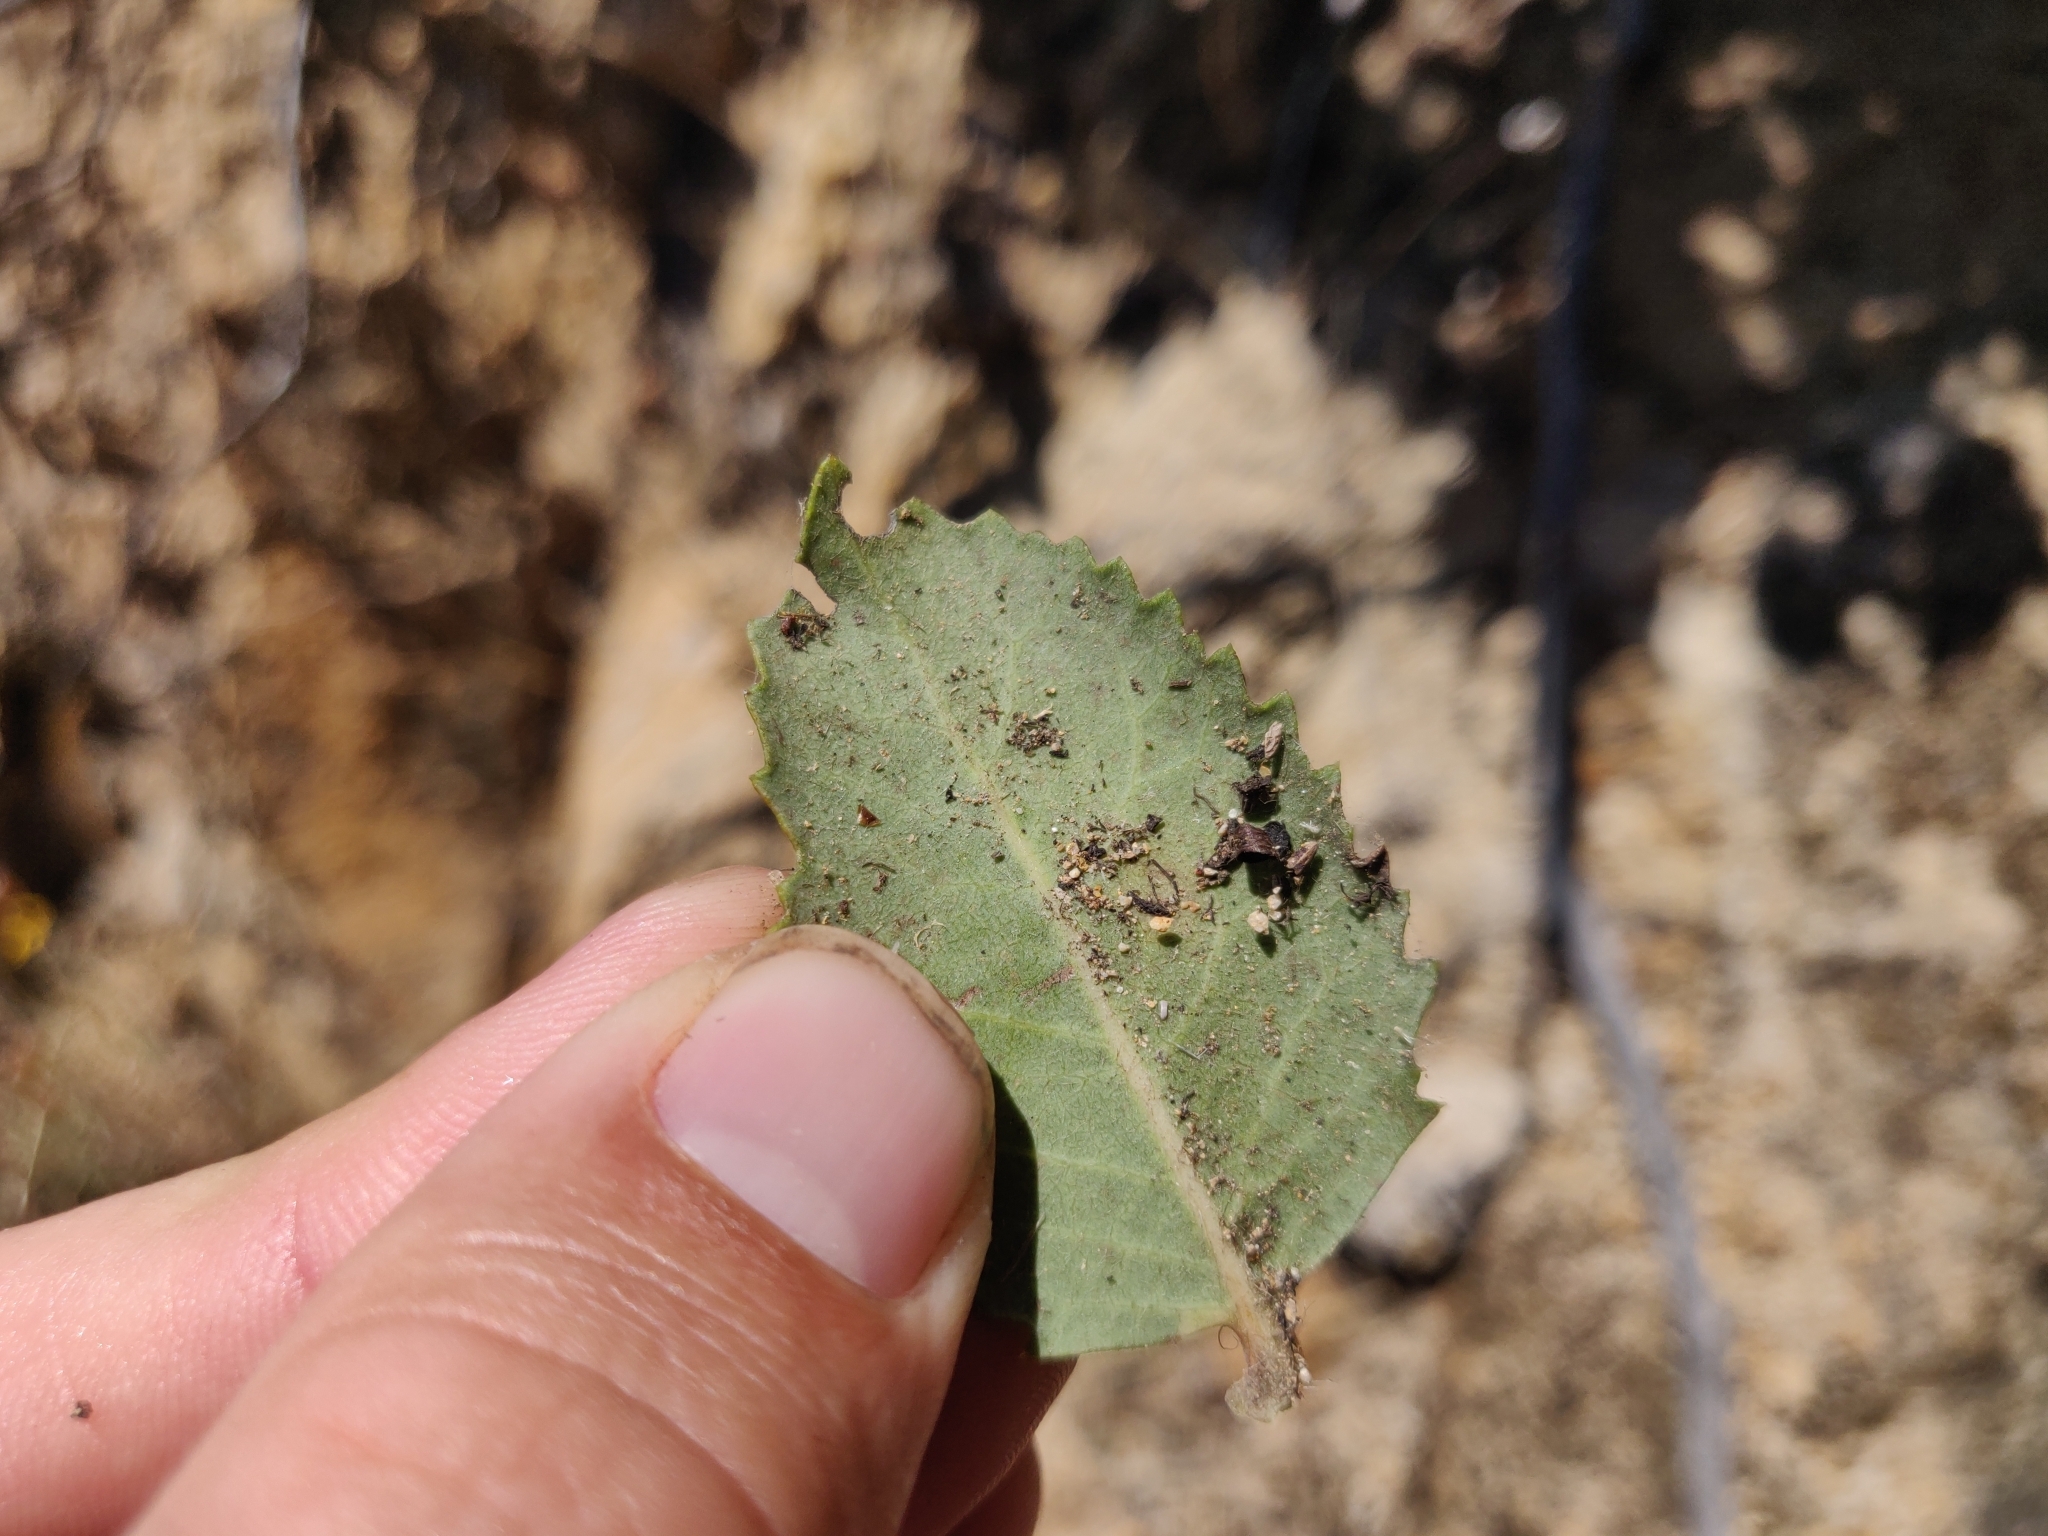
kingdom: Plantae
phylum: Tracheophyta
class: Magnoliopsida
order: Ericales
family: Ericaceae
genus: Arctostaphylos
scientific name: Arctostaphylos crustacea
